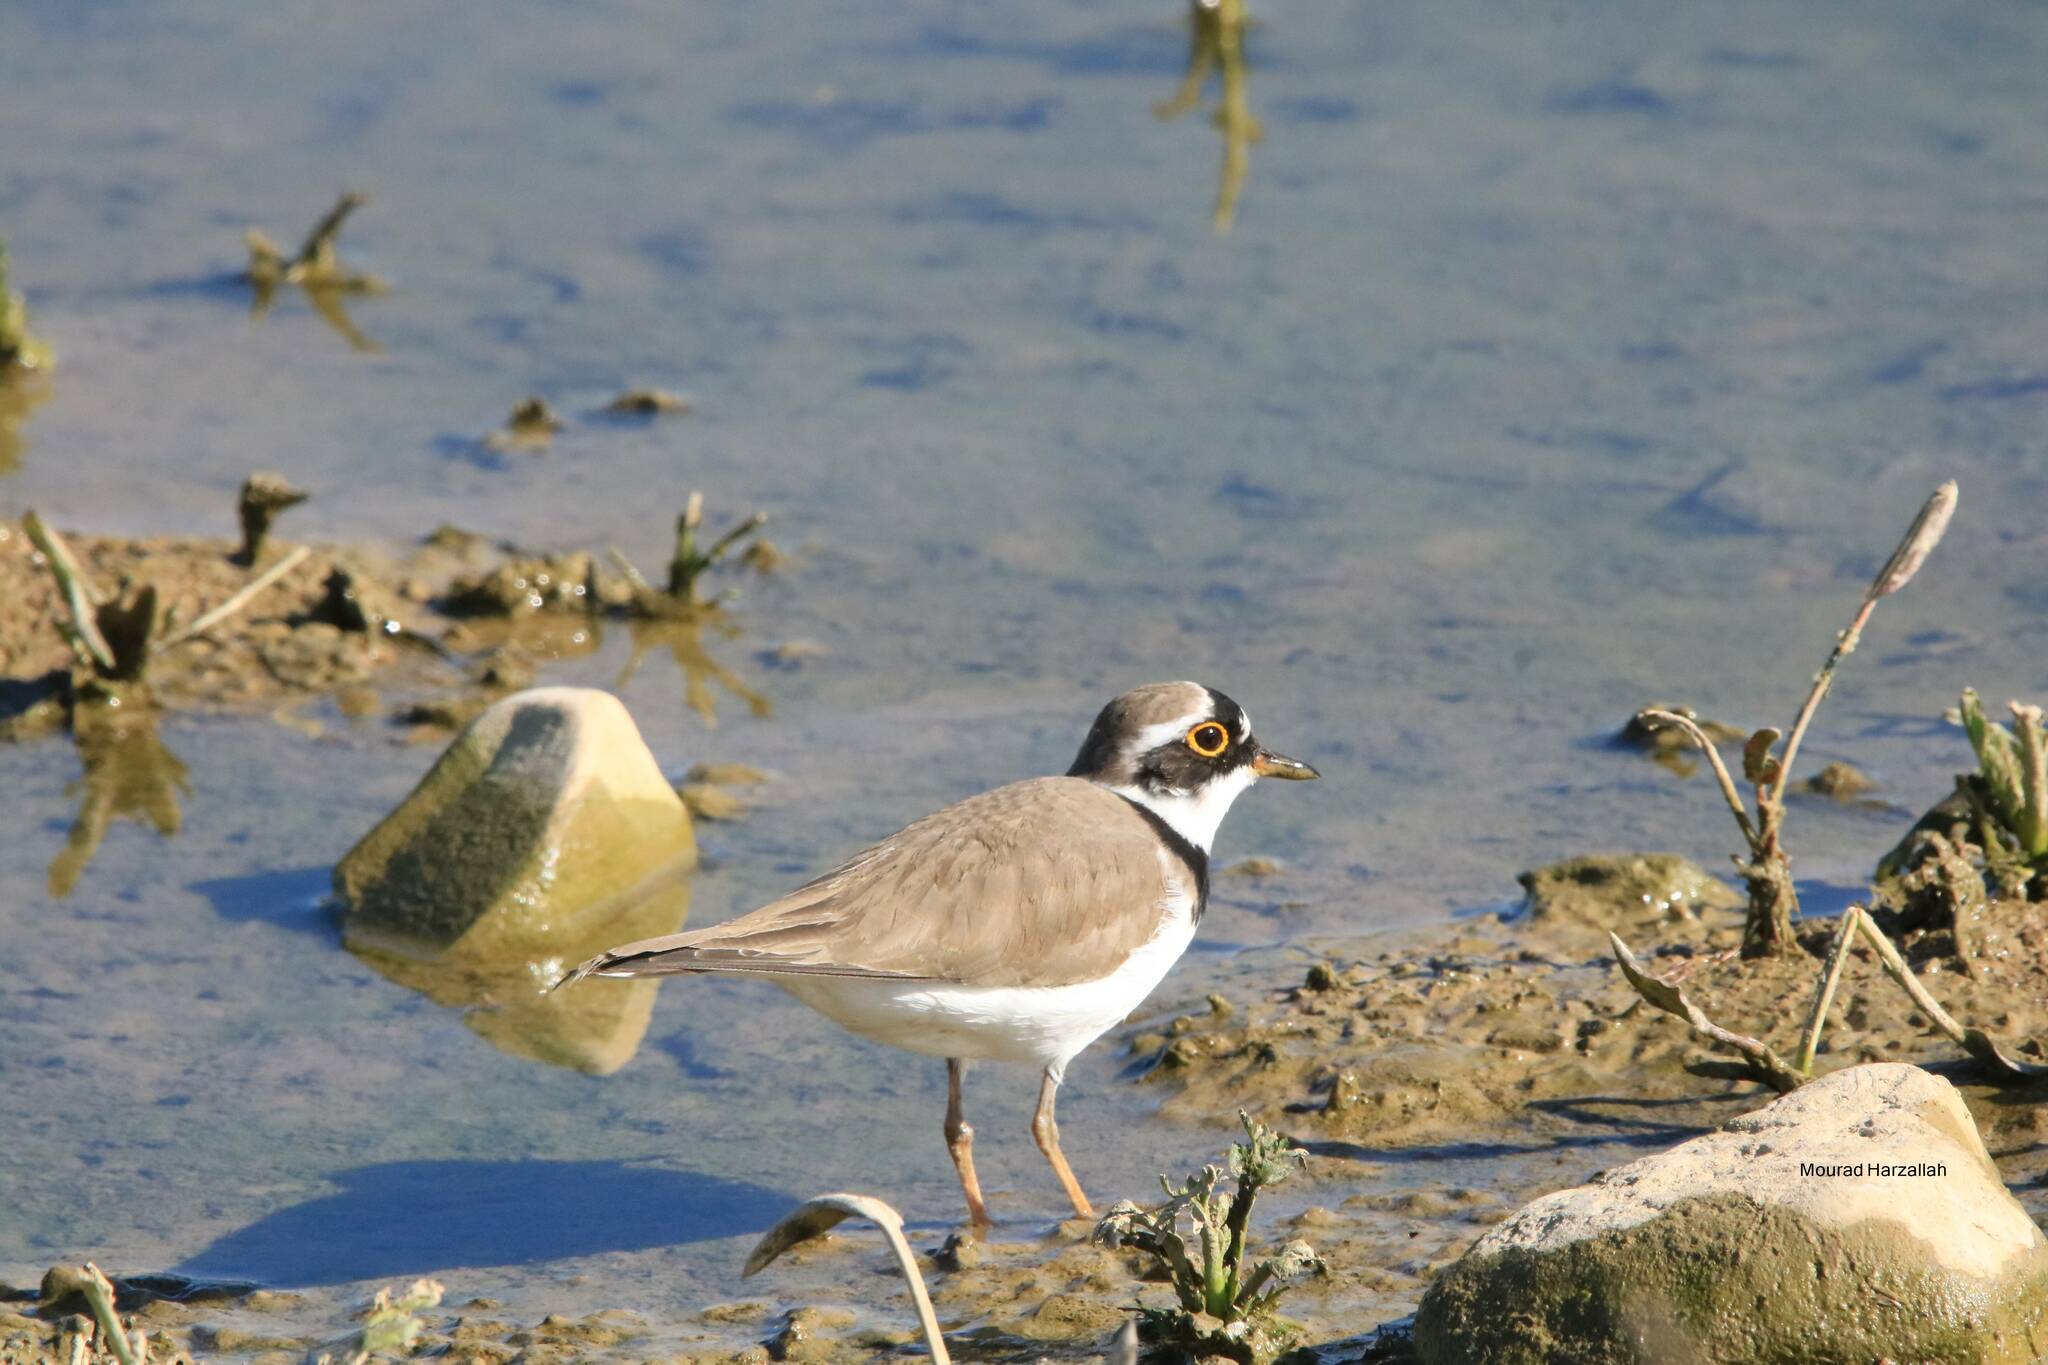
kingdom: Animalia
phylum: Chordata
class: Aves
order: Charadriiformes
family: Charadriidae
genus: Charadrius
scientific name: Charadrius dubius
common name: Little ringed plover
